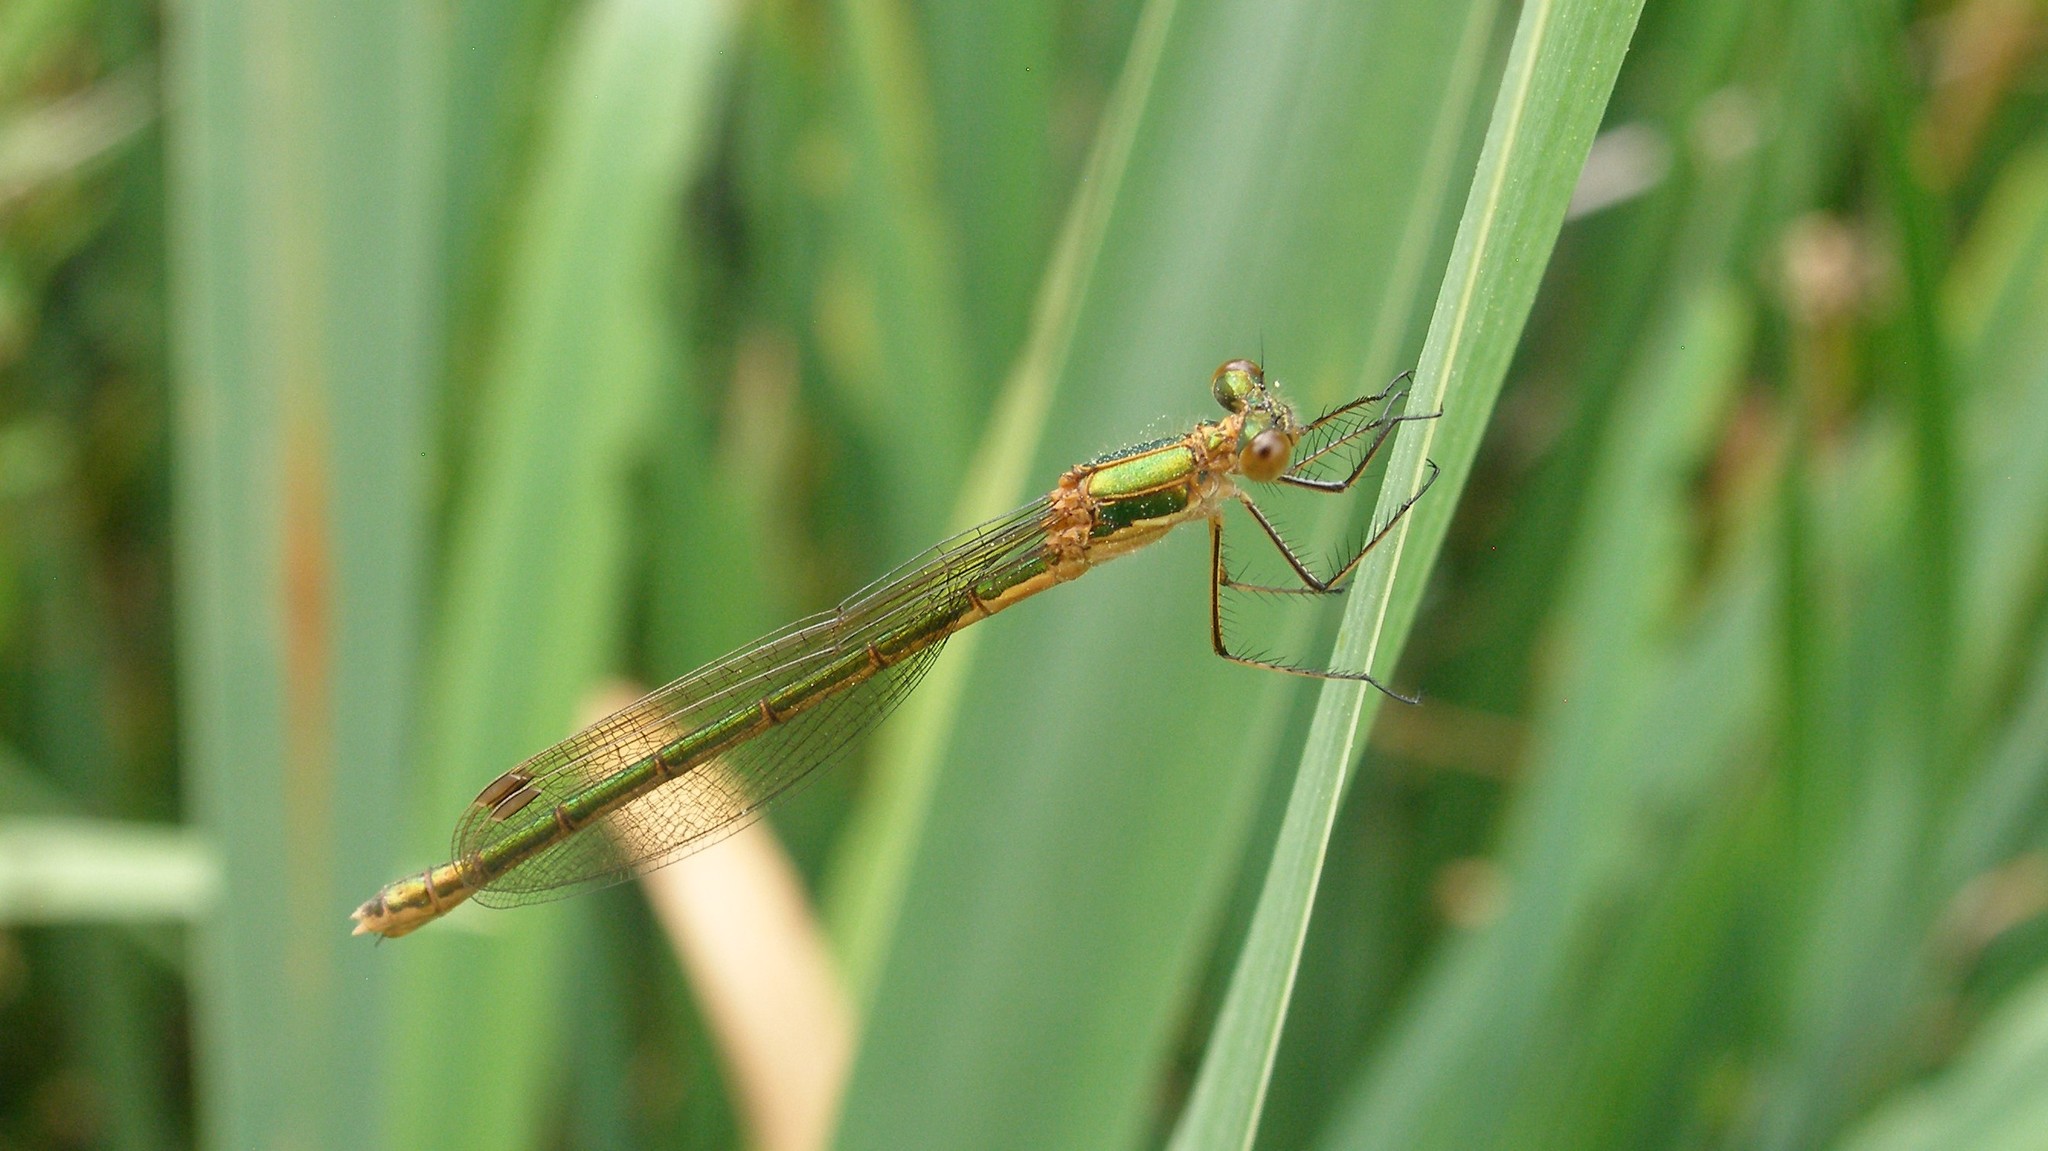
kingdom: Animalia
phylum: Arthropoda
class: Insecta
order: Odonata
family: Lestidae
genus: Lestes
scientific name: Lestes sponsa
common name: Common spreadwing
